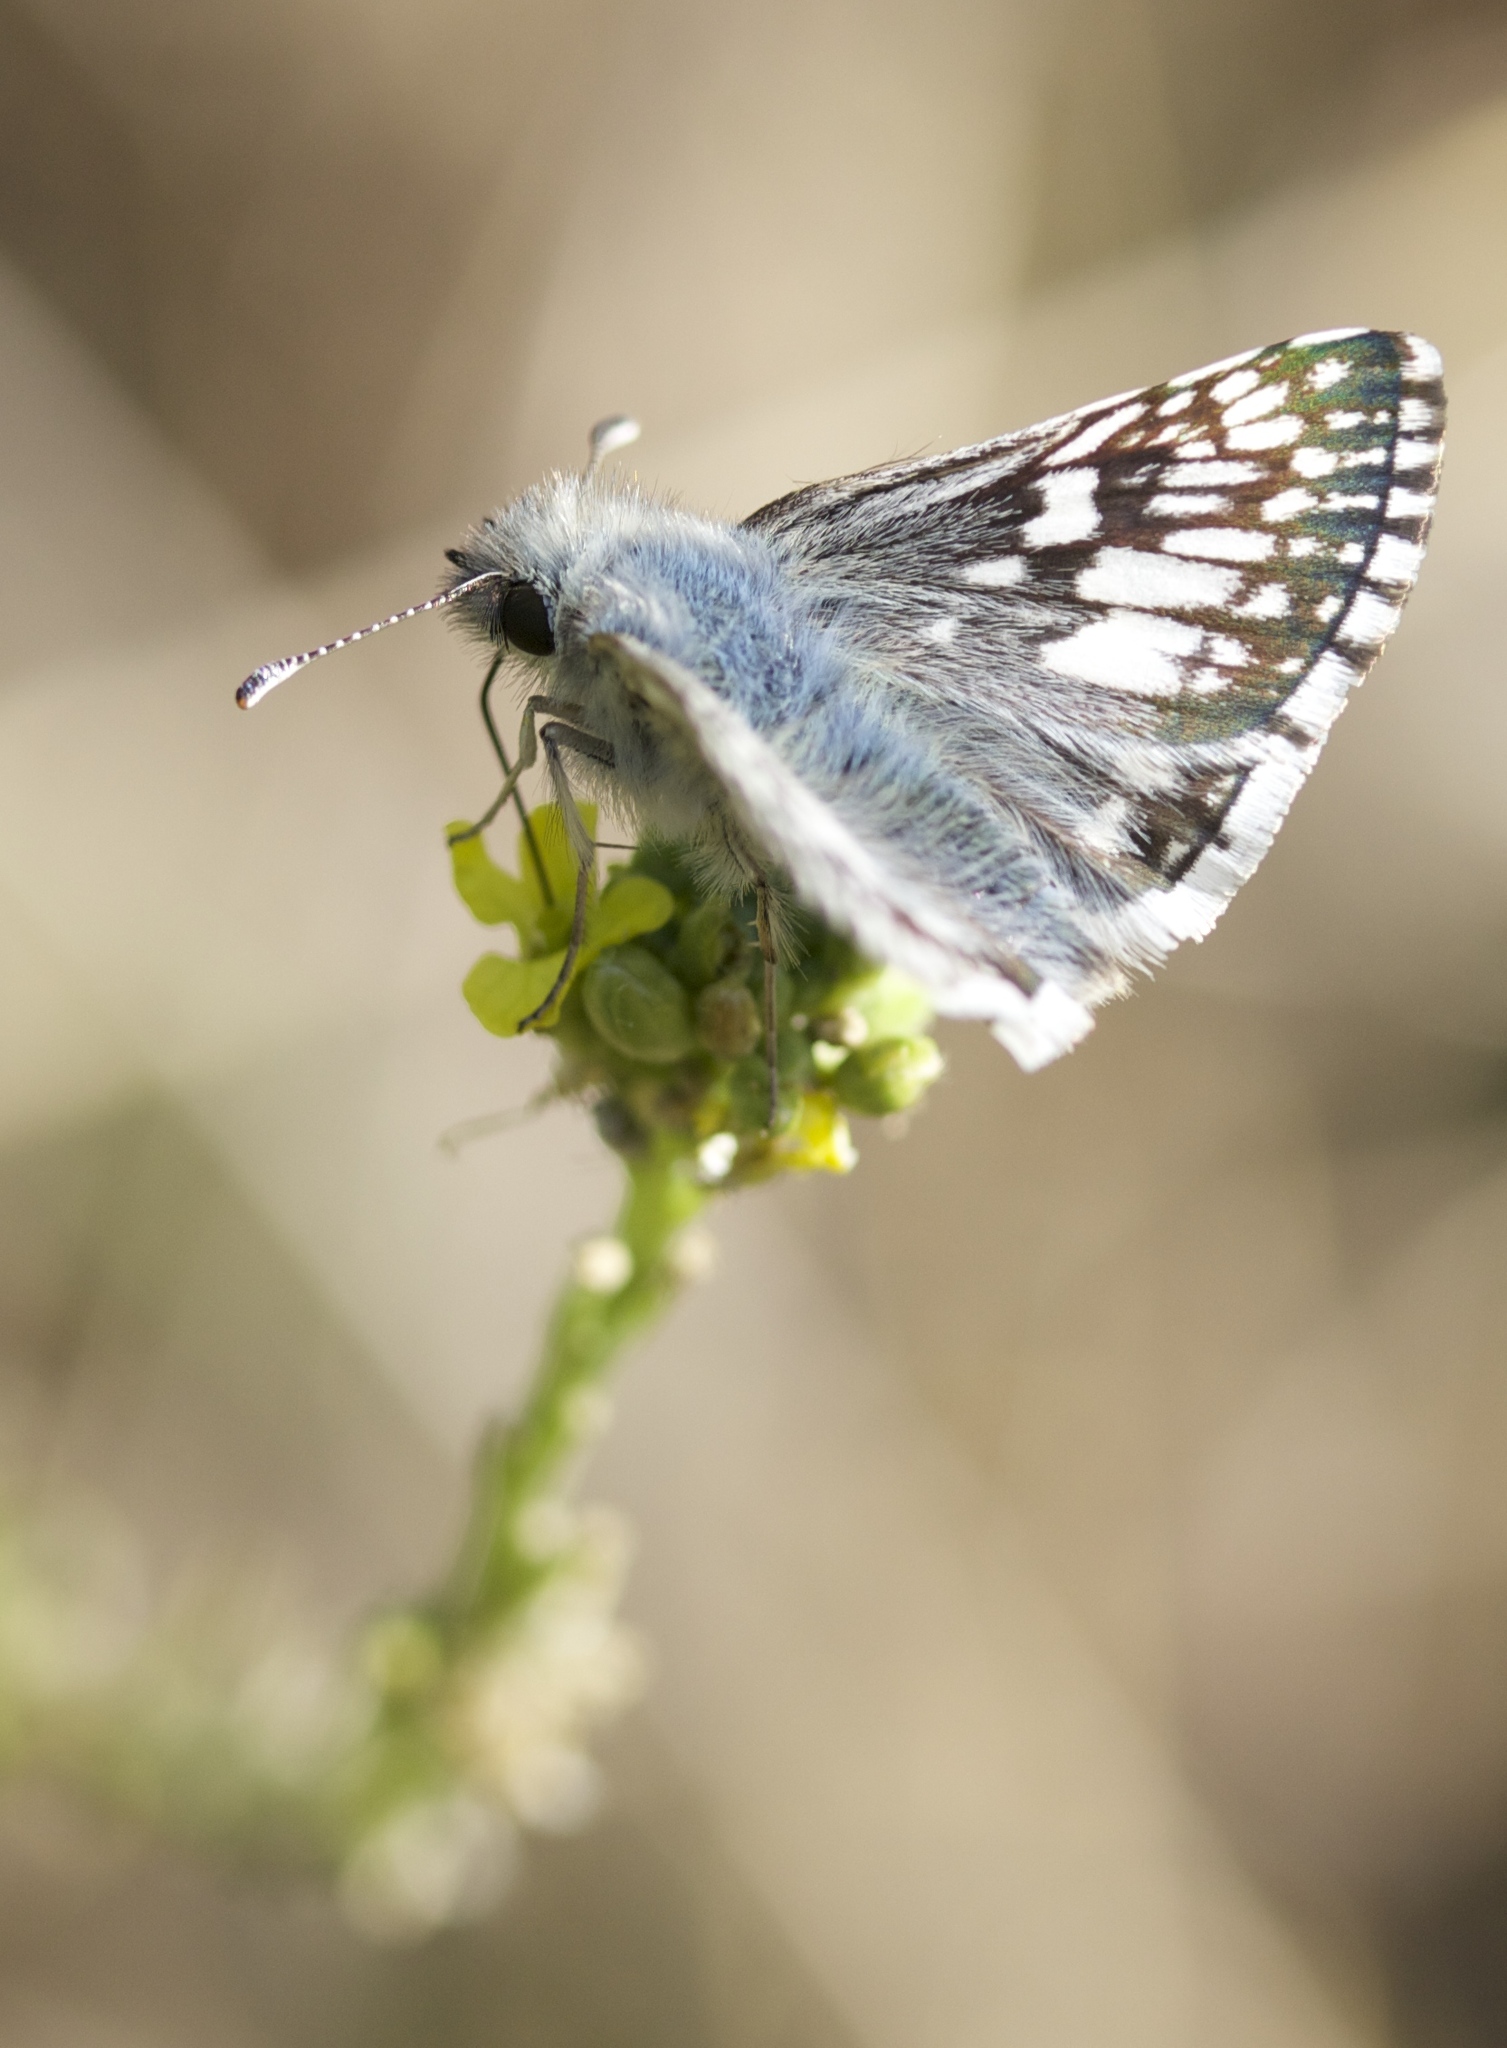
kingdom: Animalia
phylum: Arthropoda
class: Insecta
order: Lepidoptera
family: Hesperiidae
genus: Burnsius
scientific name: Burnsius communis
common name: Common checkered-skipper
